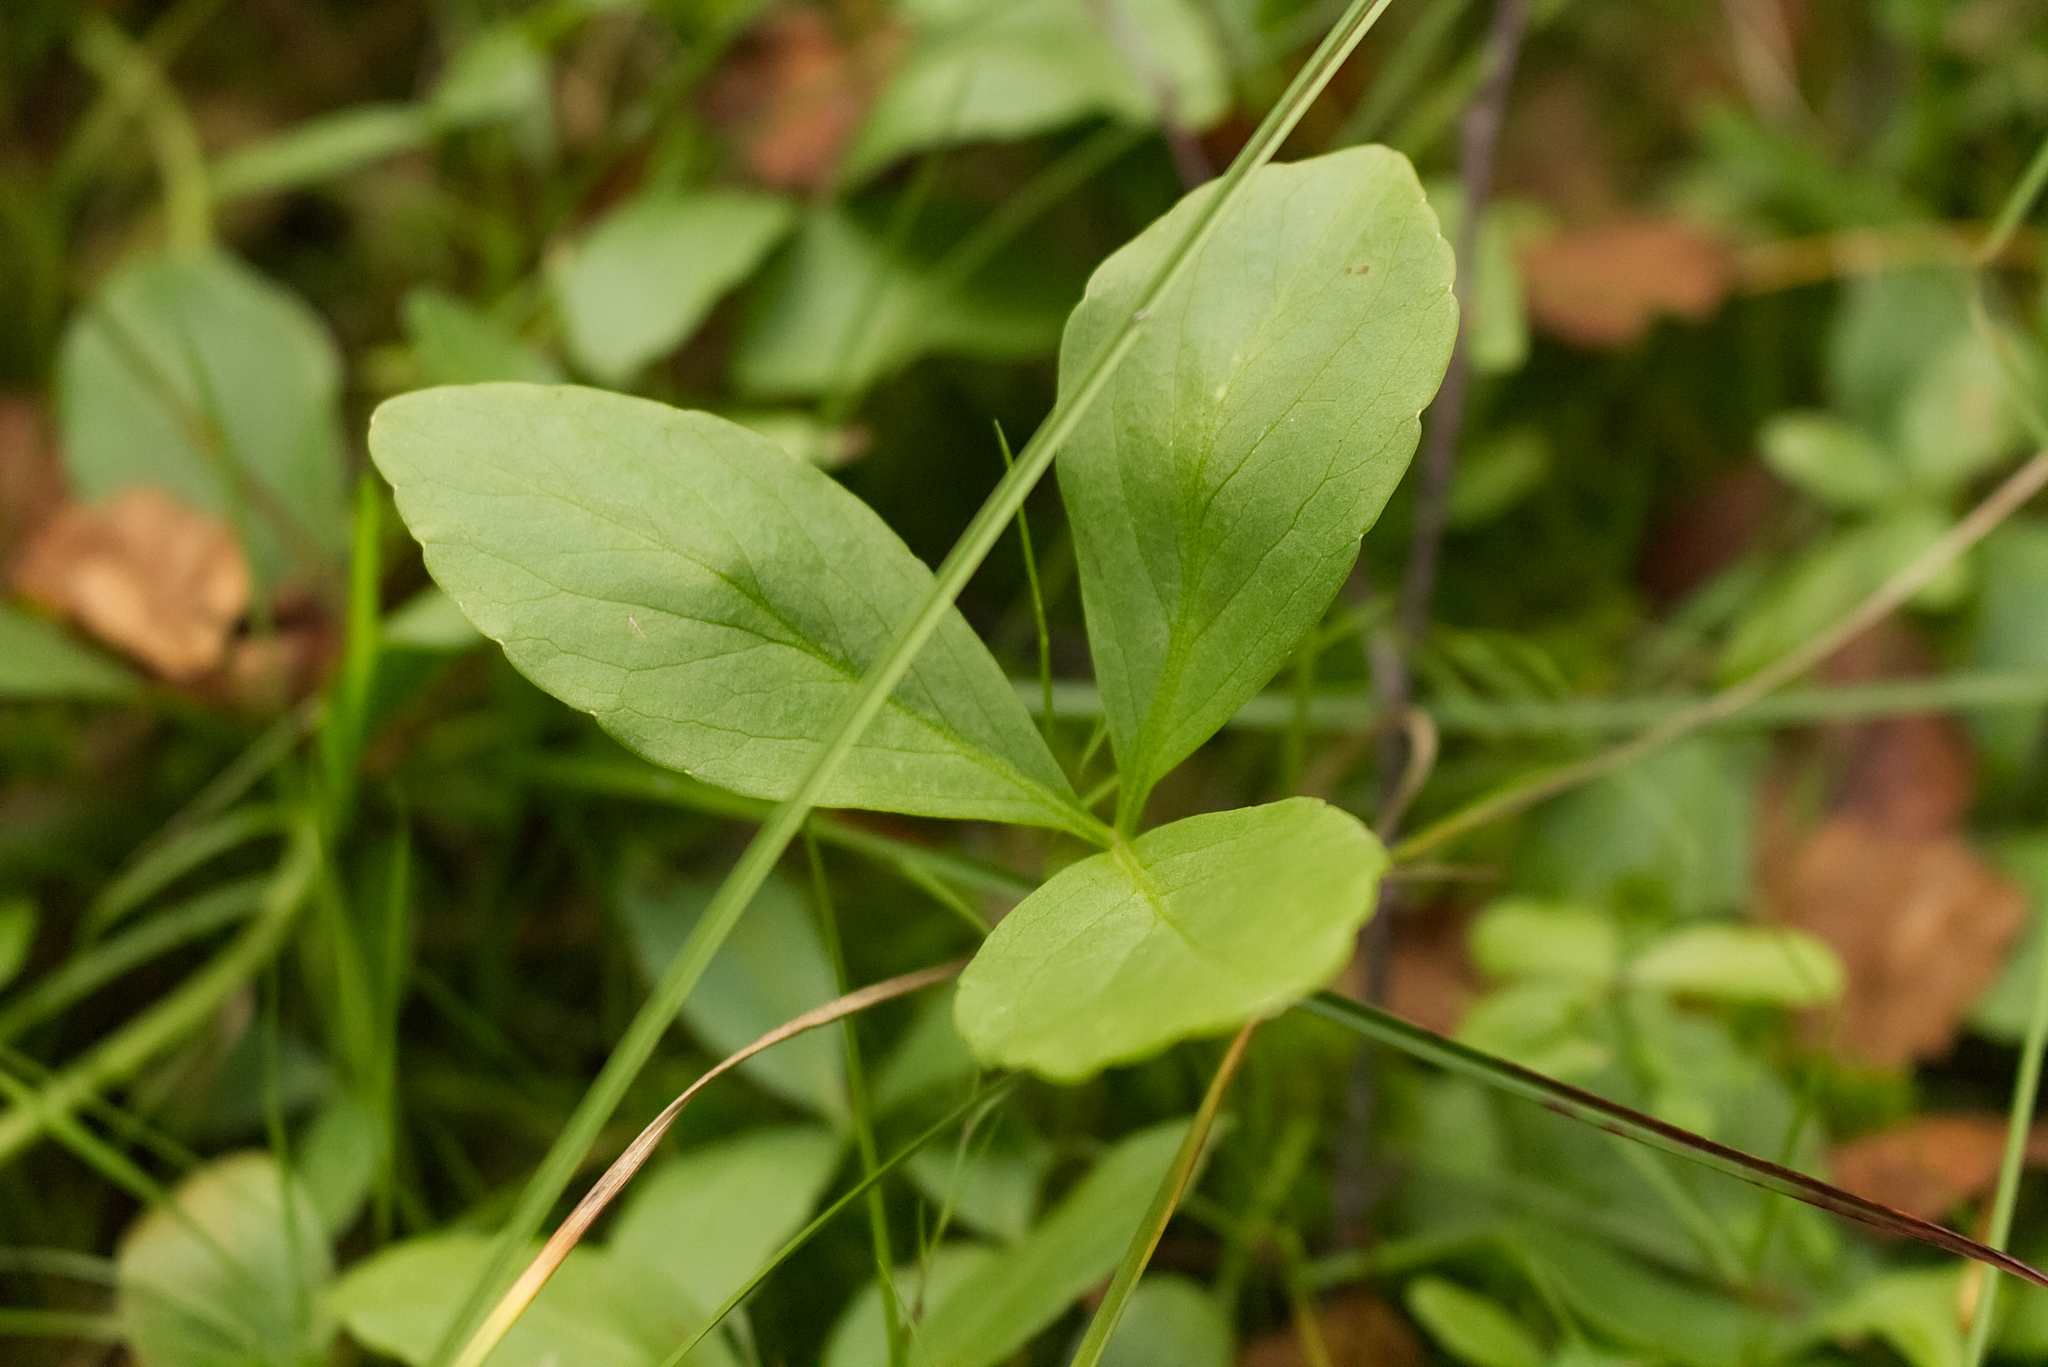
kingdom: Plantae
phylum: Tracheophyta
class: Magnoliopsida
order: Asterales
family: Menyanthaceae
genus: Menyanthes
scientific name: Menyanthes trifoliata
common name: Bogbean
